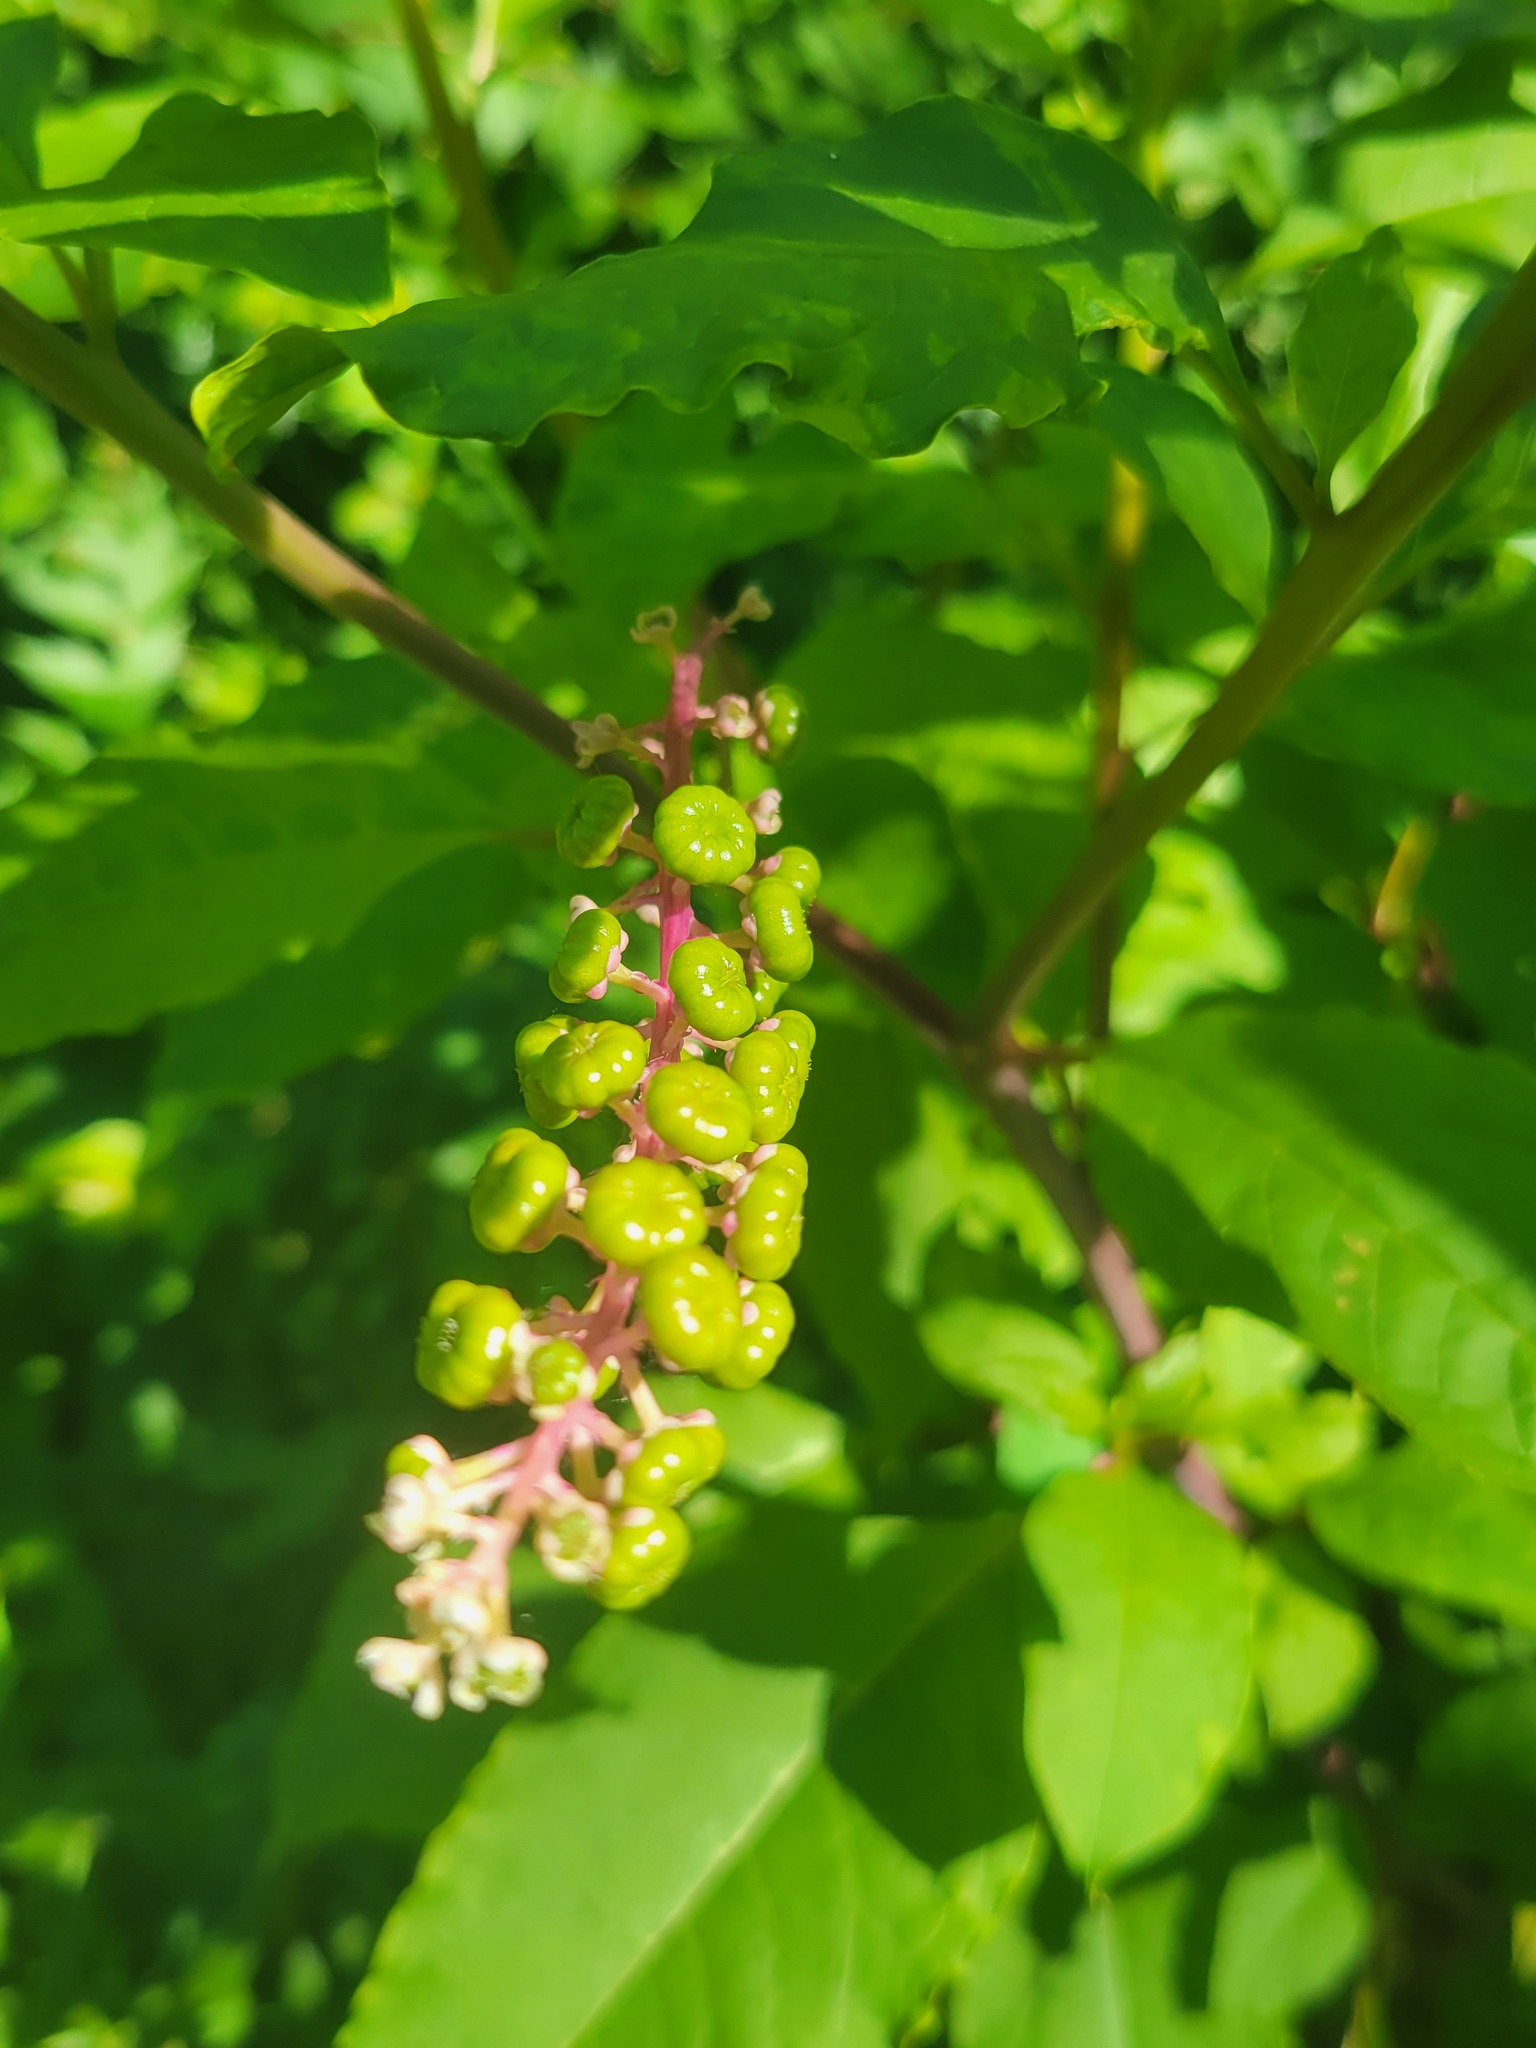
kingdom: Plantae
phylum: Tracheophyta
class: Magnoliopsida
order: Caryophyllales
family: Phytolaccaceae
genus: Phytolacca
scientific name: Phytolacca americana
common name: American pokeweed
